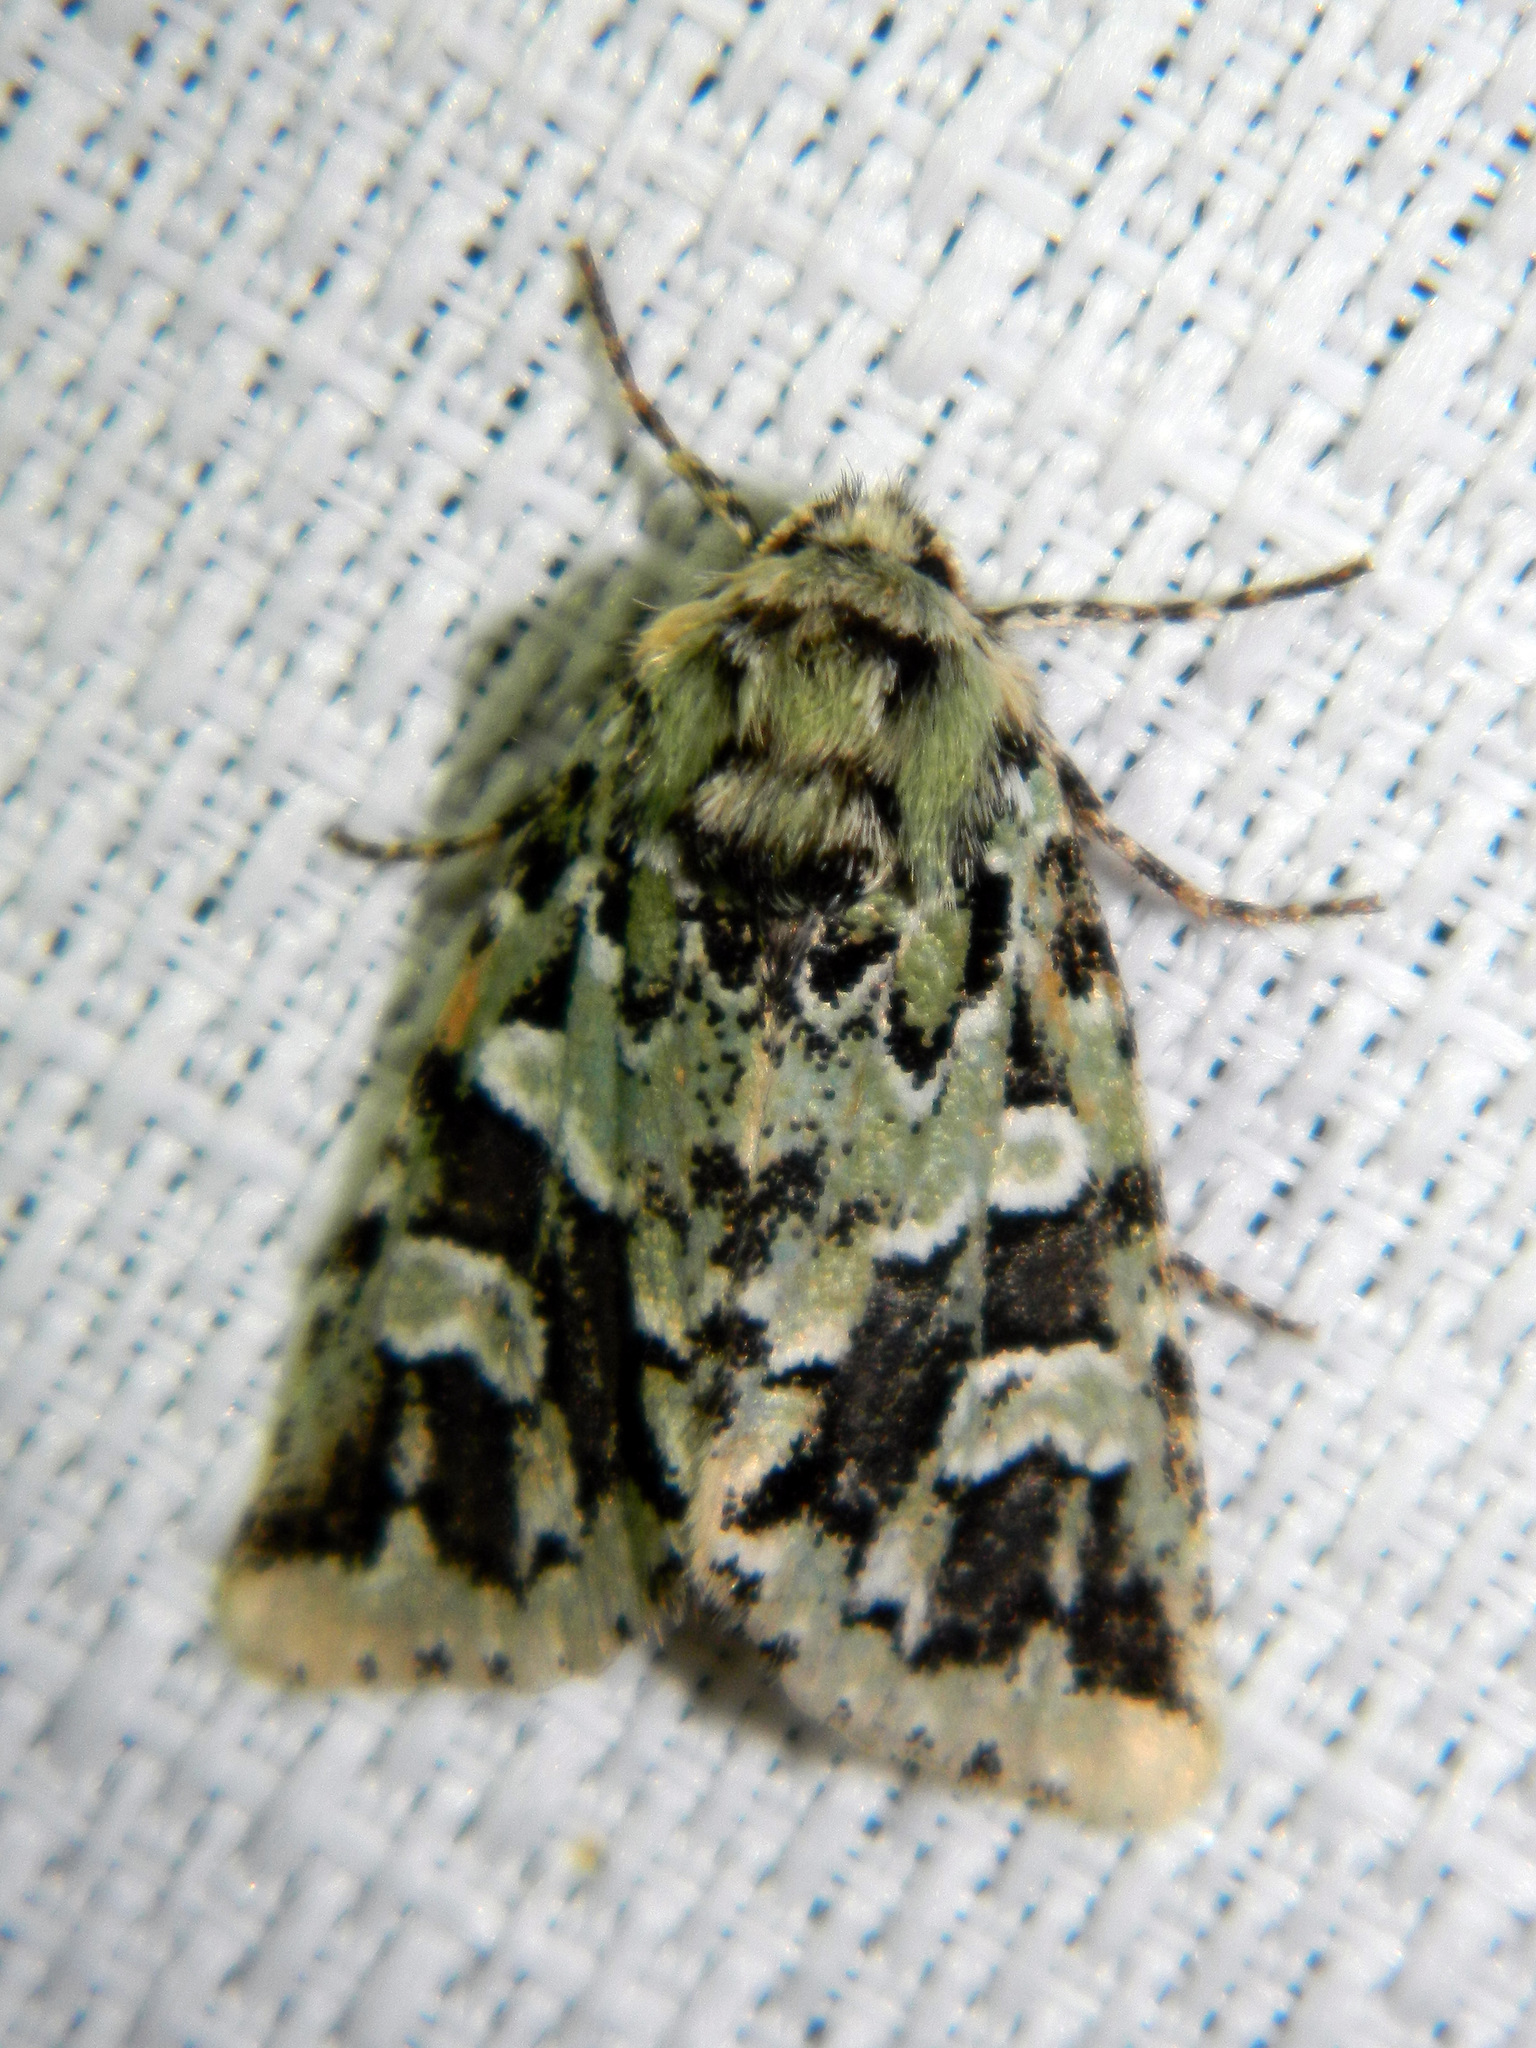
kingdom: Animalia
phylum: Arthropoda
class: Insecta
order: Lepidoptera
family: Noctuidae
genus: Feralia
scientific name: Feralia comstocki
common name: Comstock's sallow
